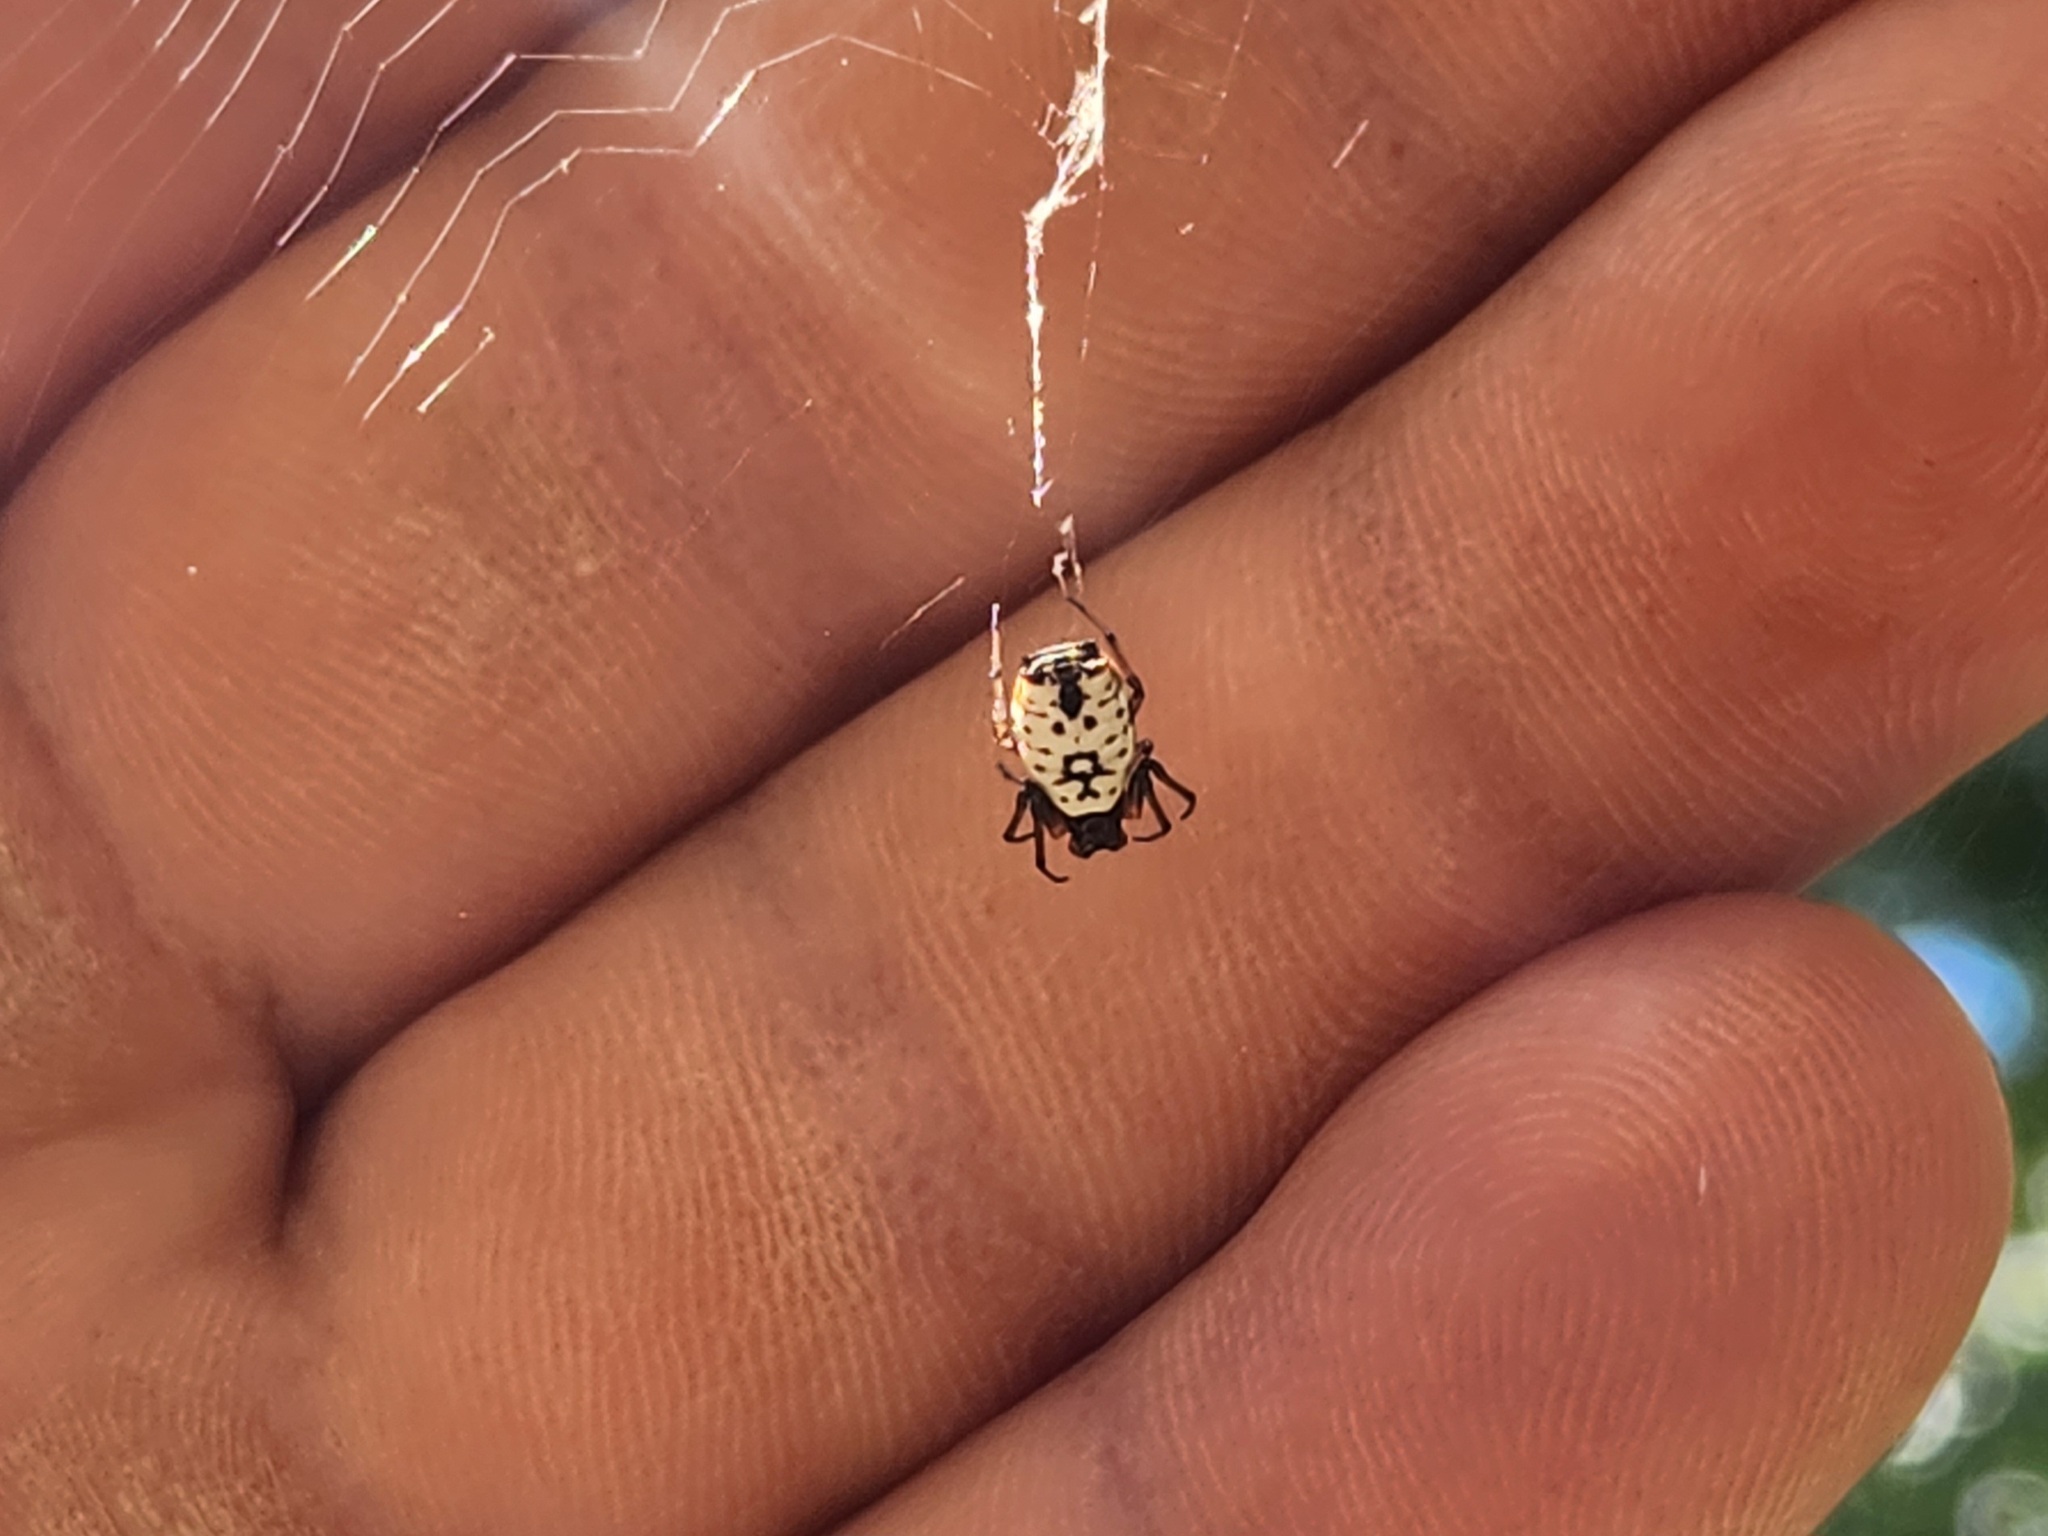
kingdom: Animalia
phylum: Arthropoda
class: Arachnida
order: Araneae
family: Araneidae
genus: Micrathena
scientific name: Micrathena mitrata
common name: Orb weavers
